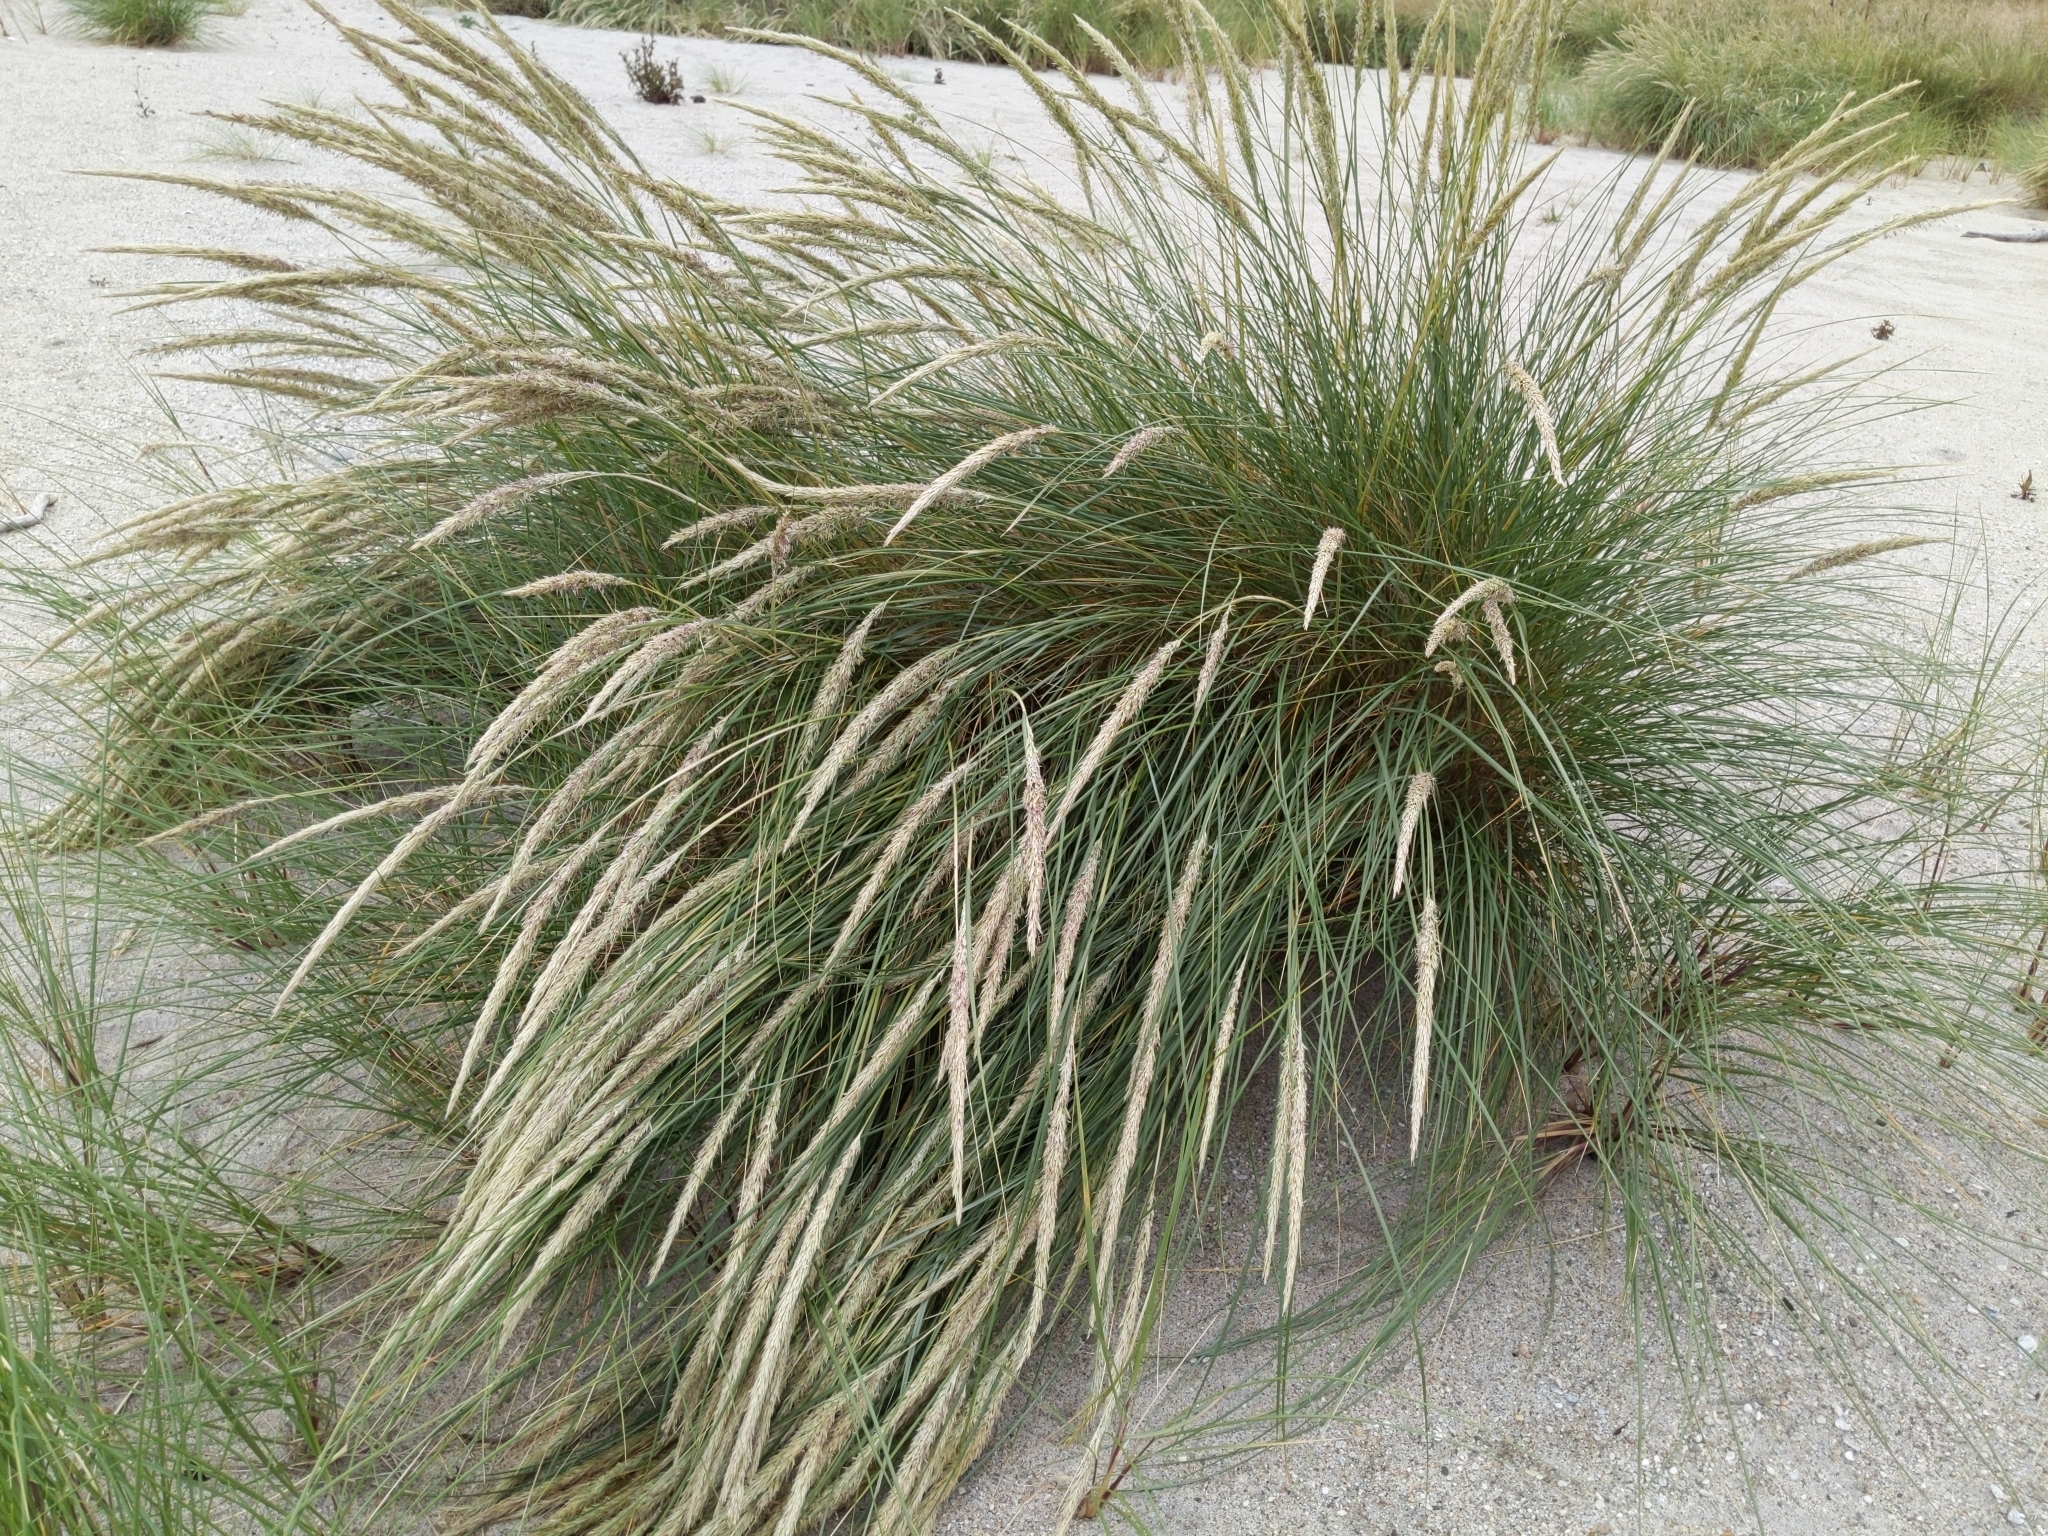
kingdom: Plantae
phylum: Tracheophyta
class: Liliopsida
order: Poales
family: Poaceae
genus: Calamagrostis
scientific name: Calamagrostis arenaria
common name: European beachgrass
